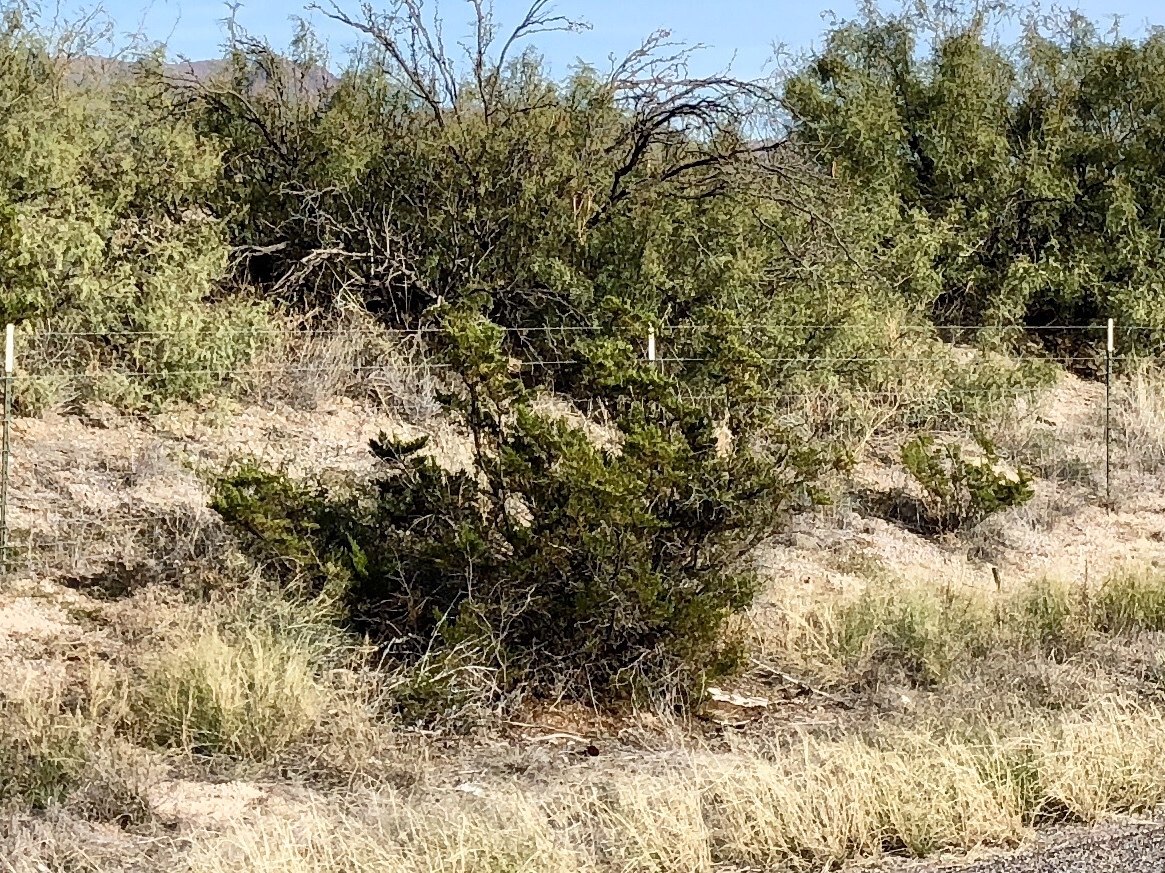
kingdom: Plantae
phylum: Tracheophyta
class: Magnoliopsida
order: Zygophyllales
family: Zygophyllaceae
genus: Larrea
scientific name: Larrea tridentata
